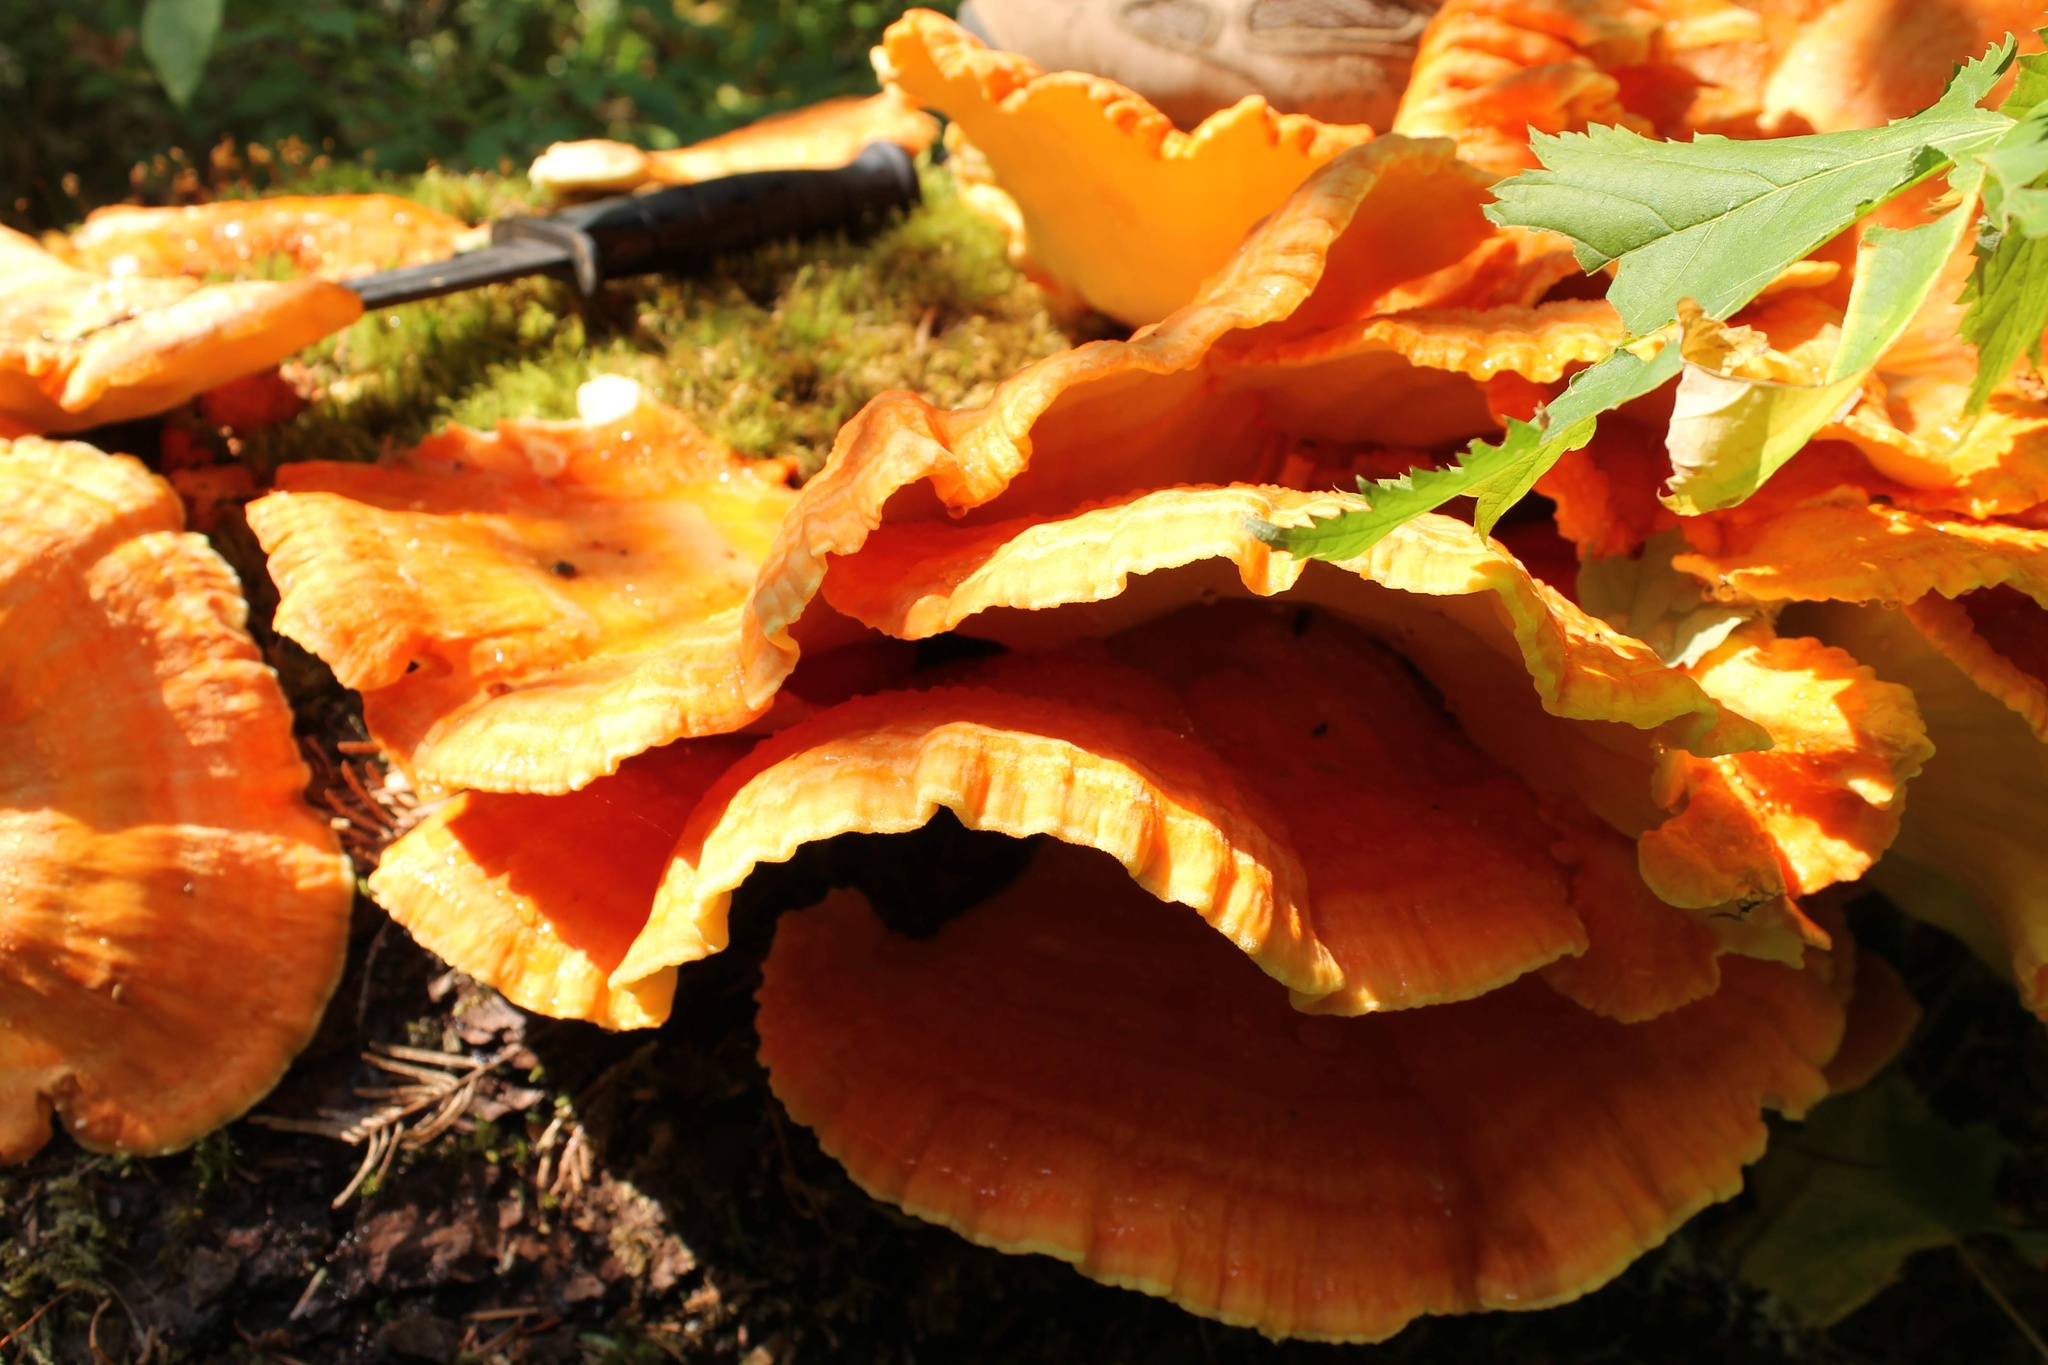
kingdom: Fungi
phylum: Basidiomycota
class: Agaricomycetes
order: Polyporales
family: Laetiporaceae
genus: Laetiporus
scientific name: Laetiporus conifericola
